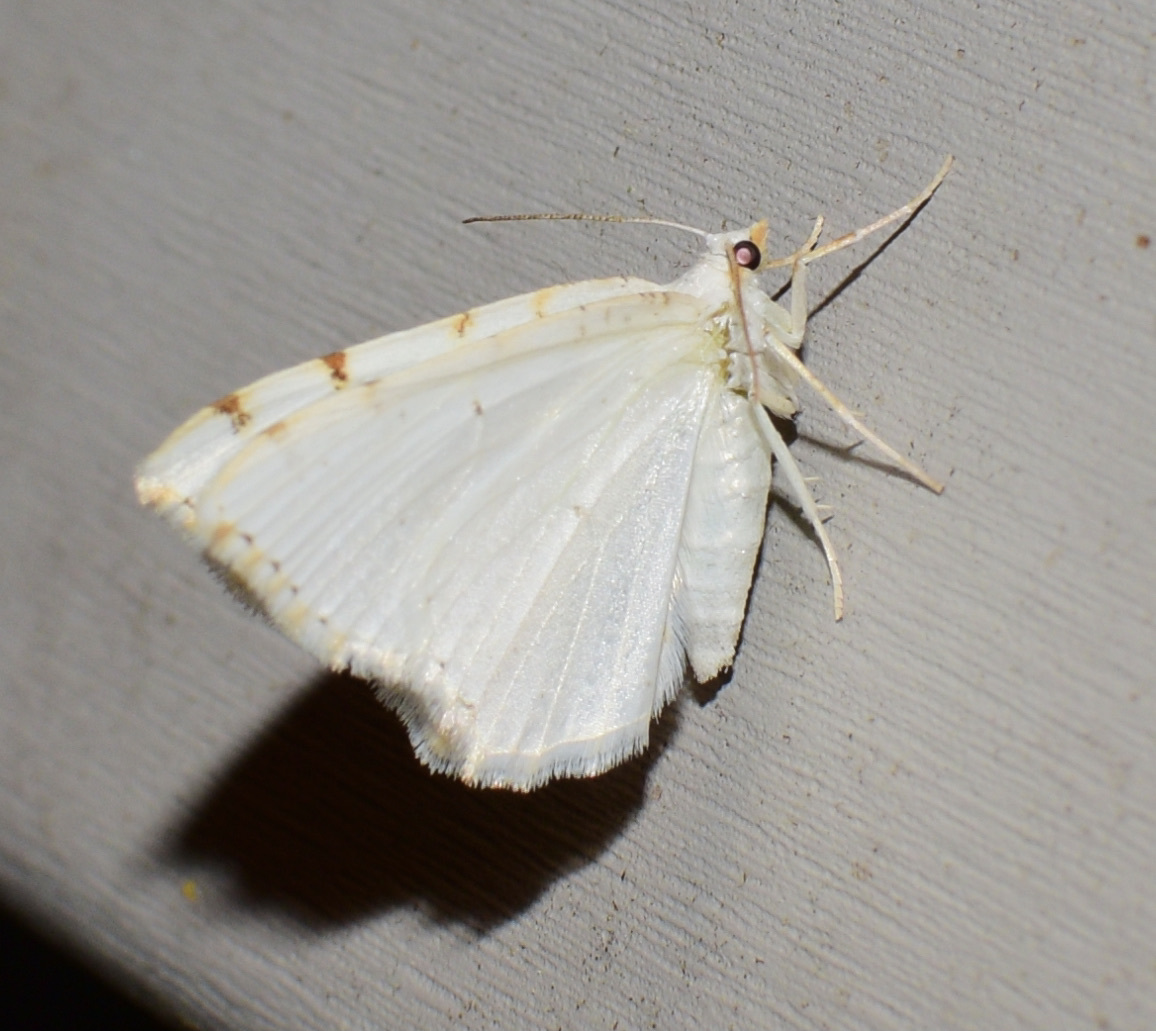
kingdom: Animalia
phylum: Arthropoda
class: Insecta
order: Lepidoptera
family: Geometridae
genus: Macaria
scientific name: Macaria pustularia
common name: Lesser maple spanworm moth
